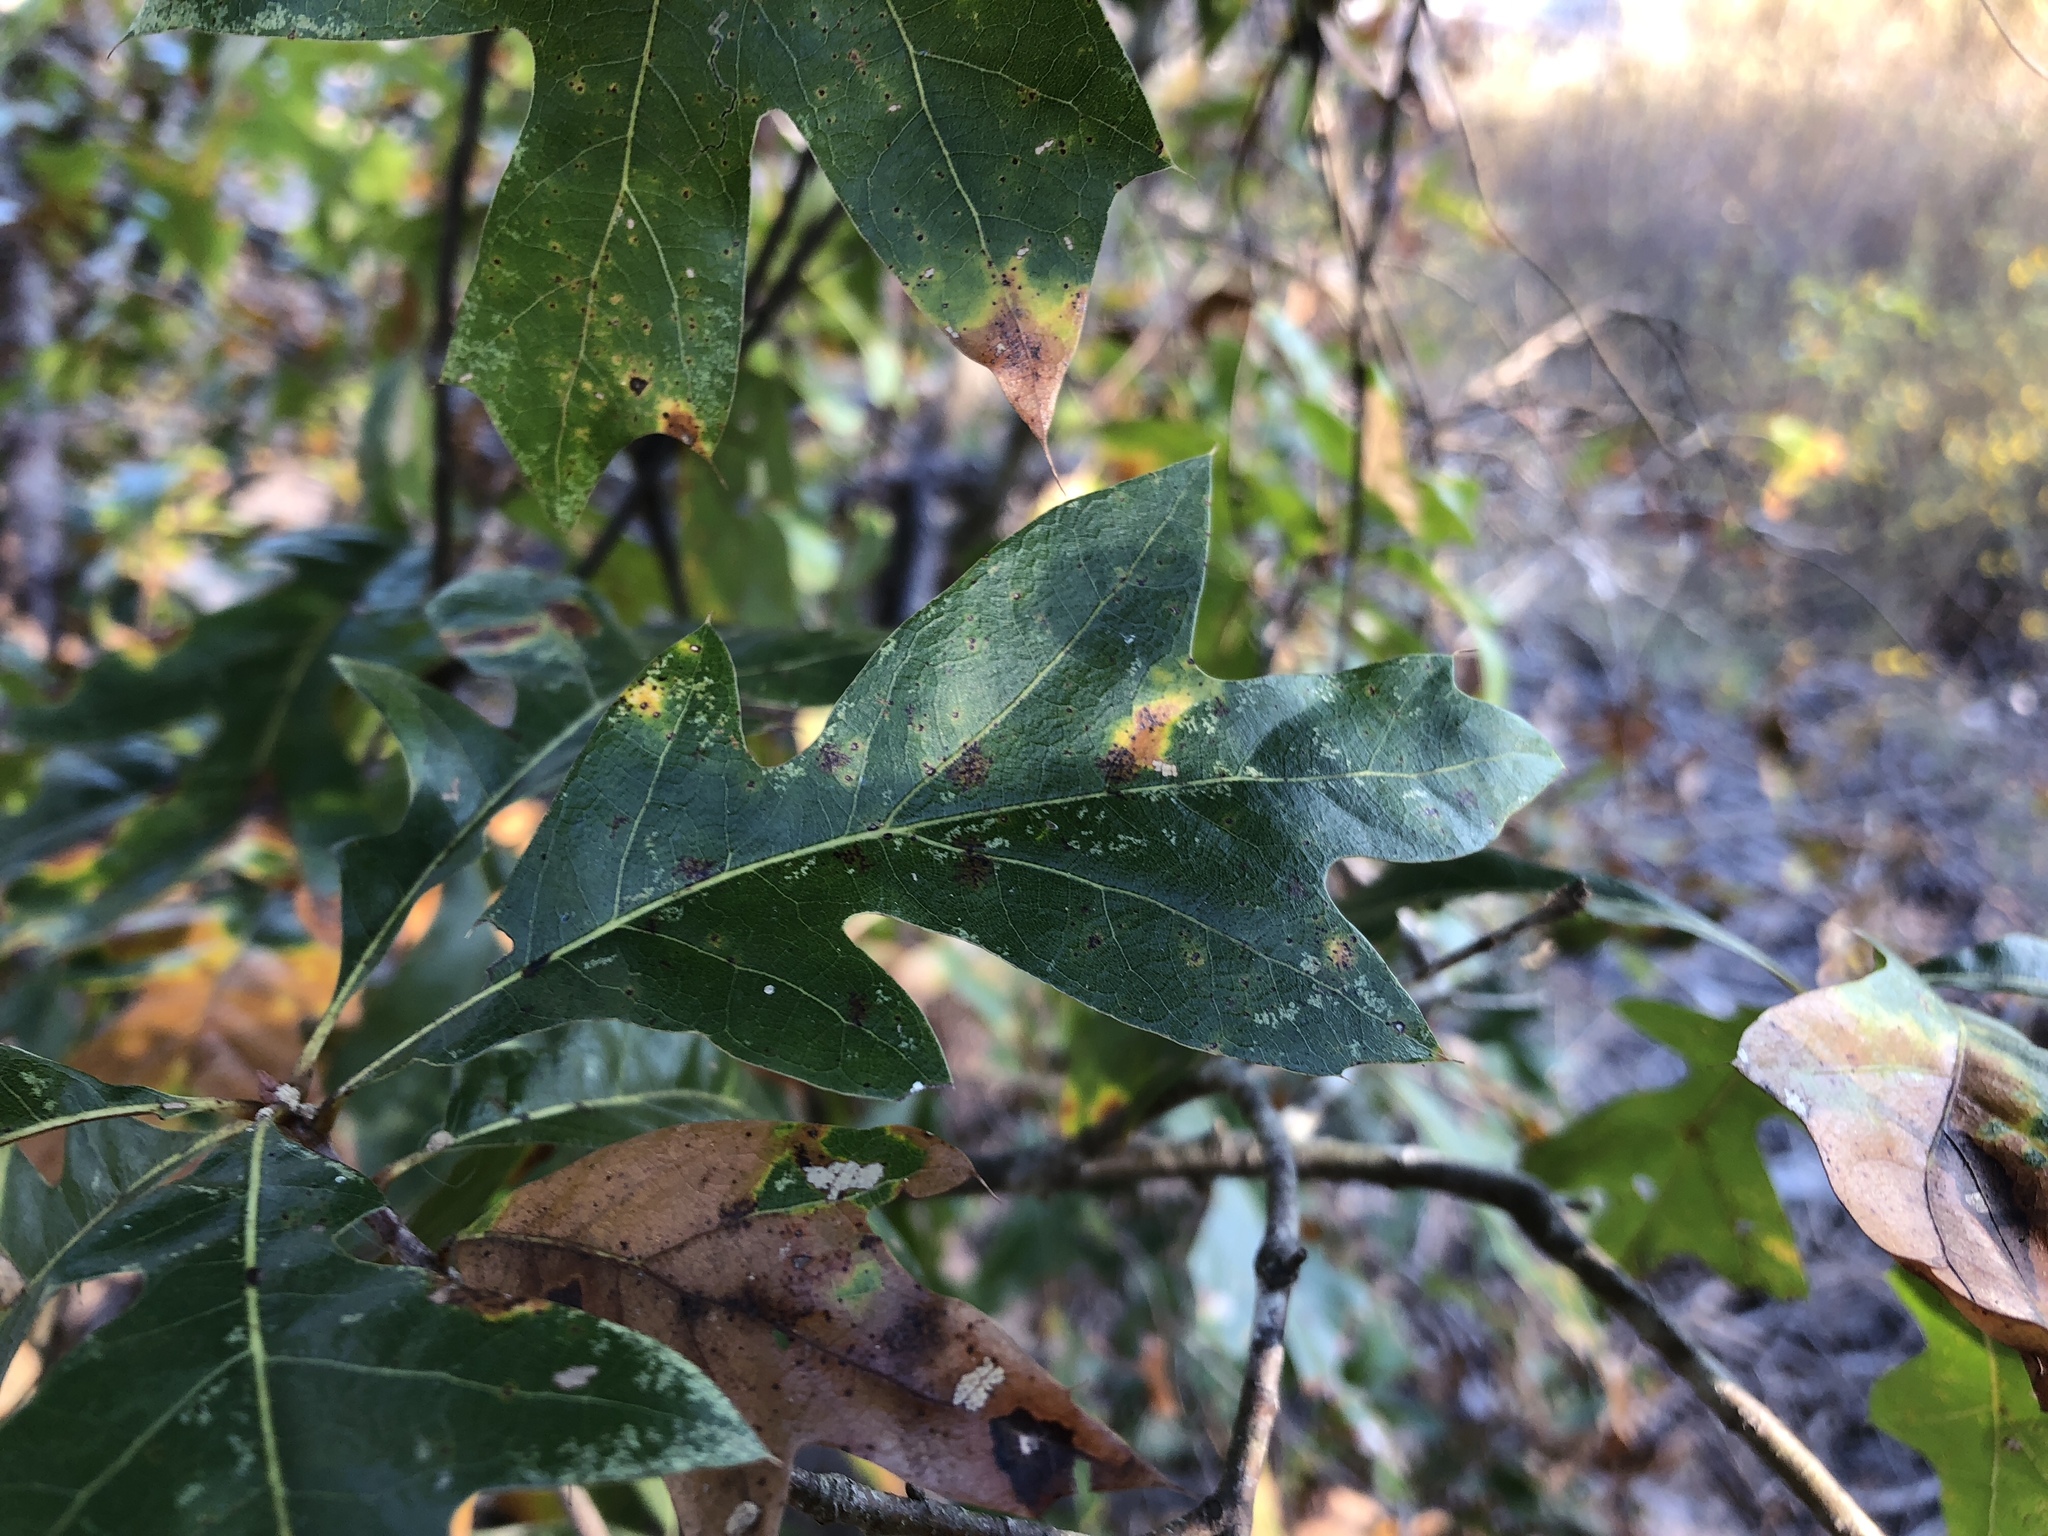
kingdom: Plantae
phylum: Tracheophyta
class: Magnoliopsida
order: Fagales
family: Fagaceae
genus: Quercus
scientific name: Quercus georgiana
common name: Georgia oak
